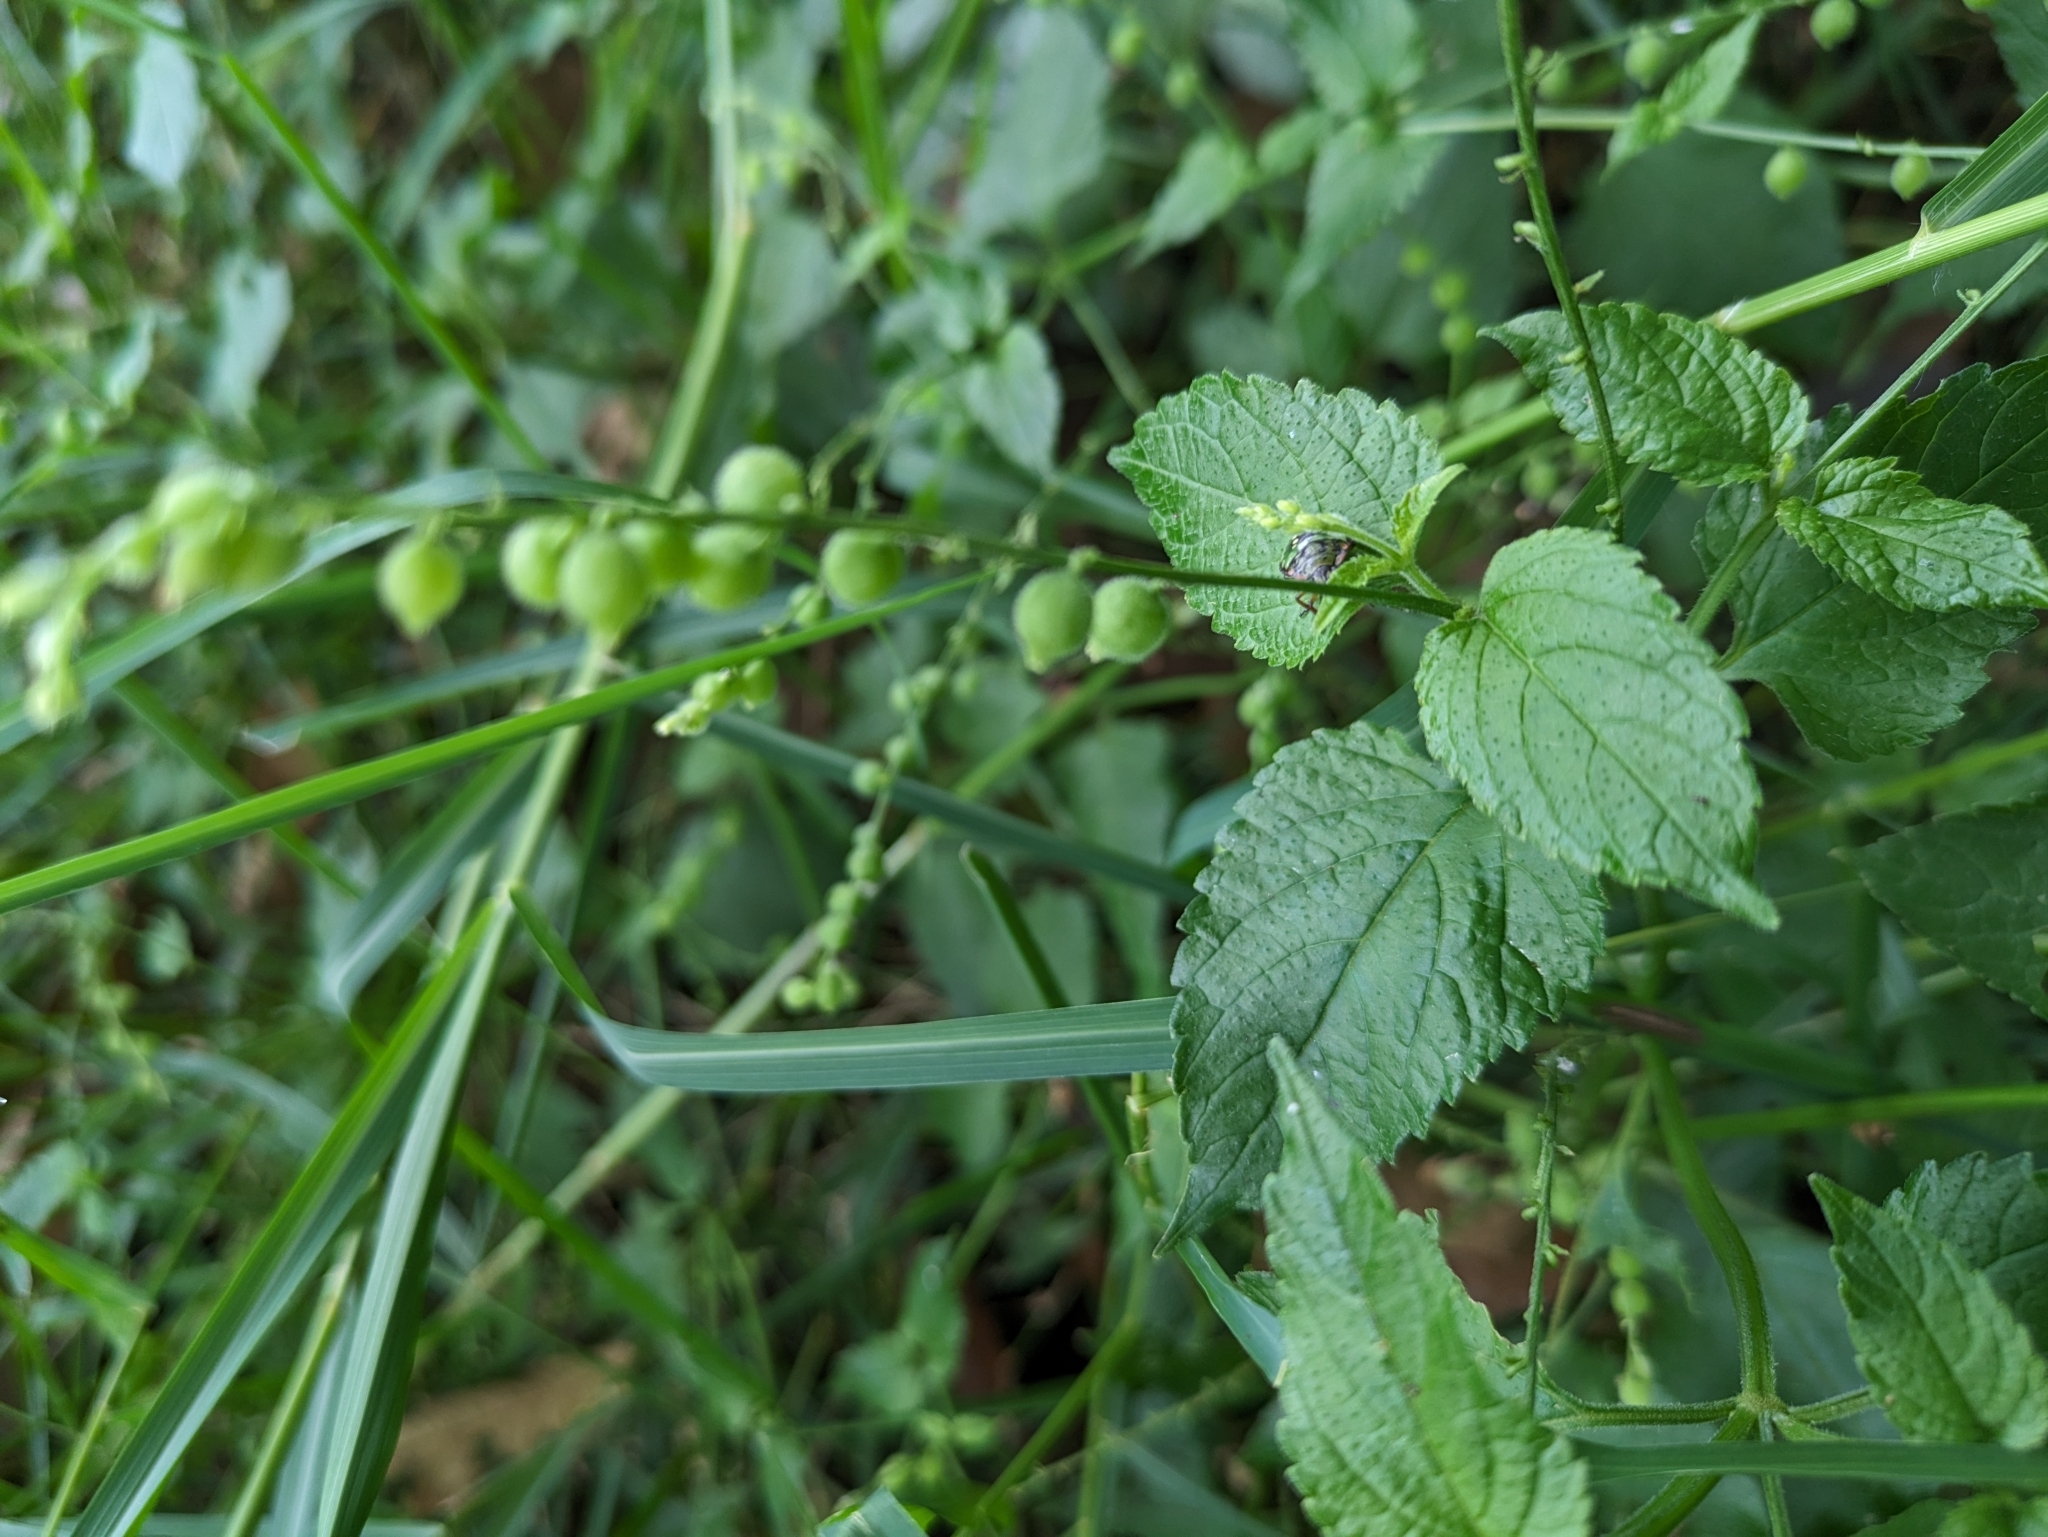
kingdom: Plantae
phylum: Tracheophyta
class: Magnoliopsida
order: Lamiales
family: Verbenaceae
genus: Priva
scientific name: Priva lappulacea
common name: Fasten-'pon-coat
